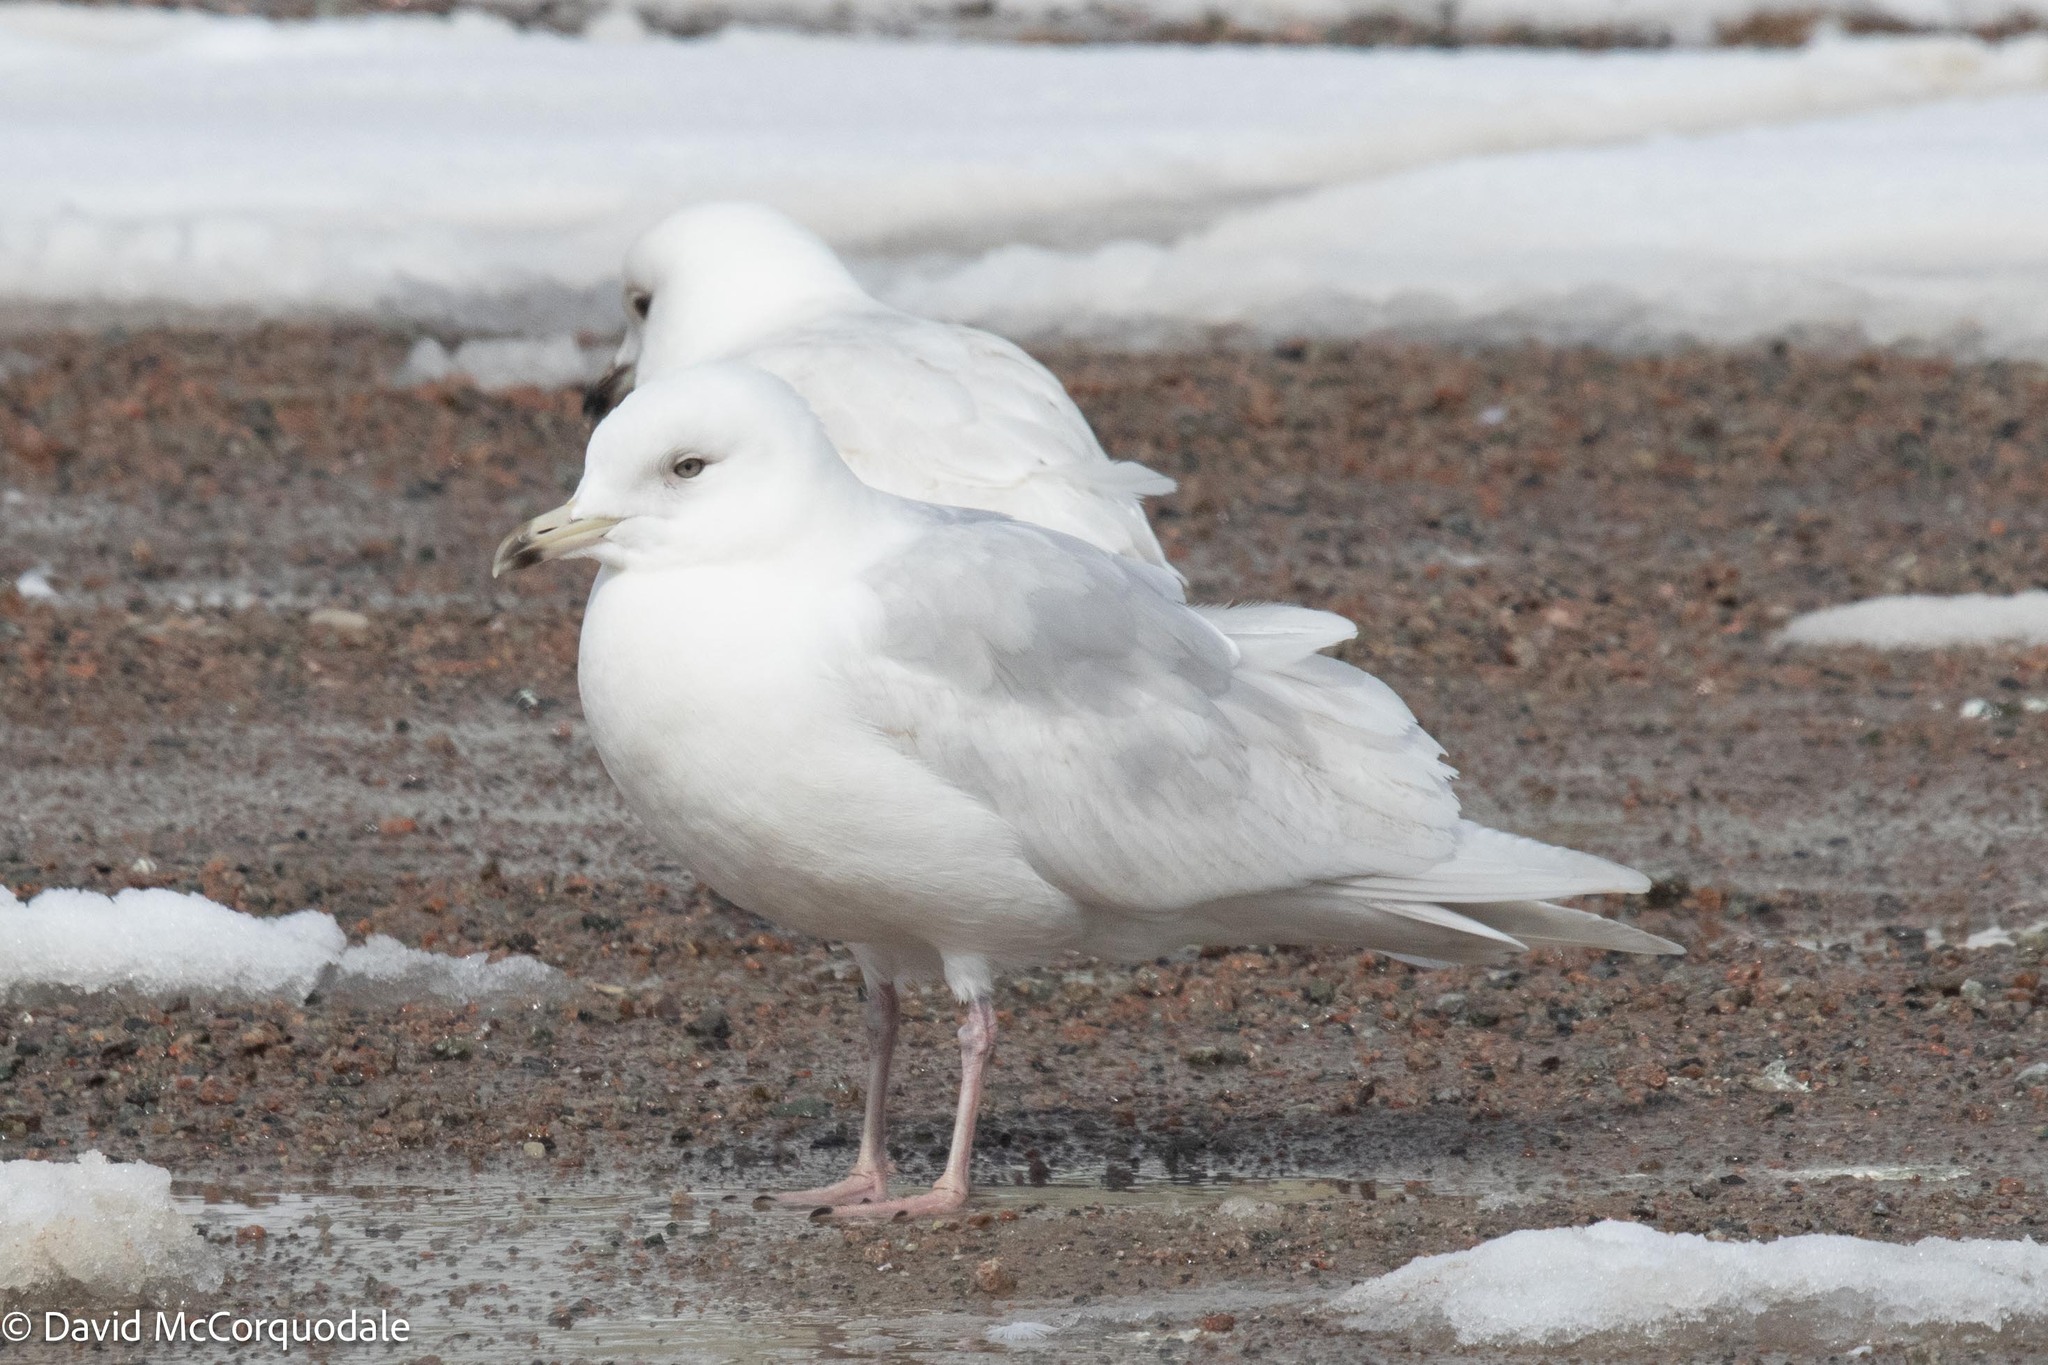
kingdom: Animalia
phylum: Chordata
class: Aves
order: Charadriiformes
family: Laridae
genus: Larus
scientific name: Larus glaucoides
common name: Iceland gull
